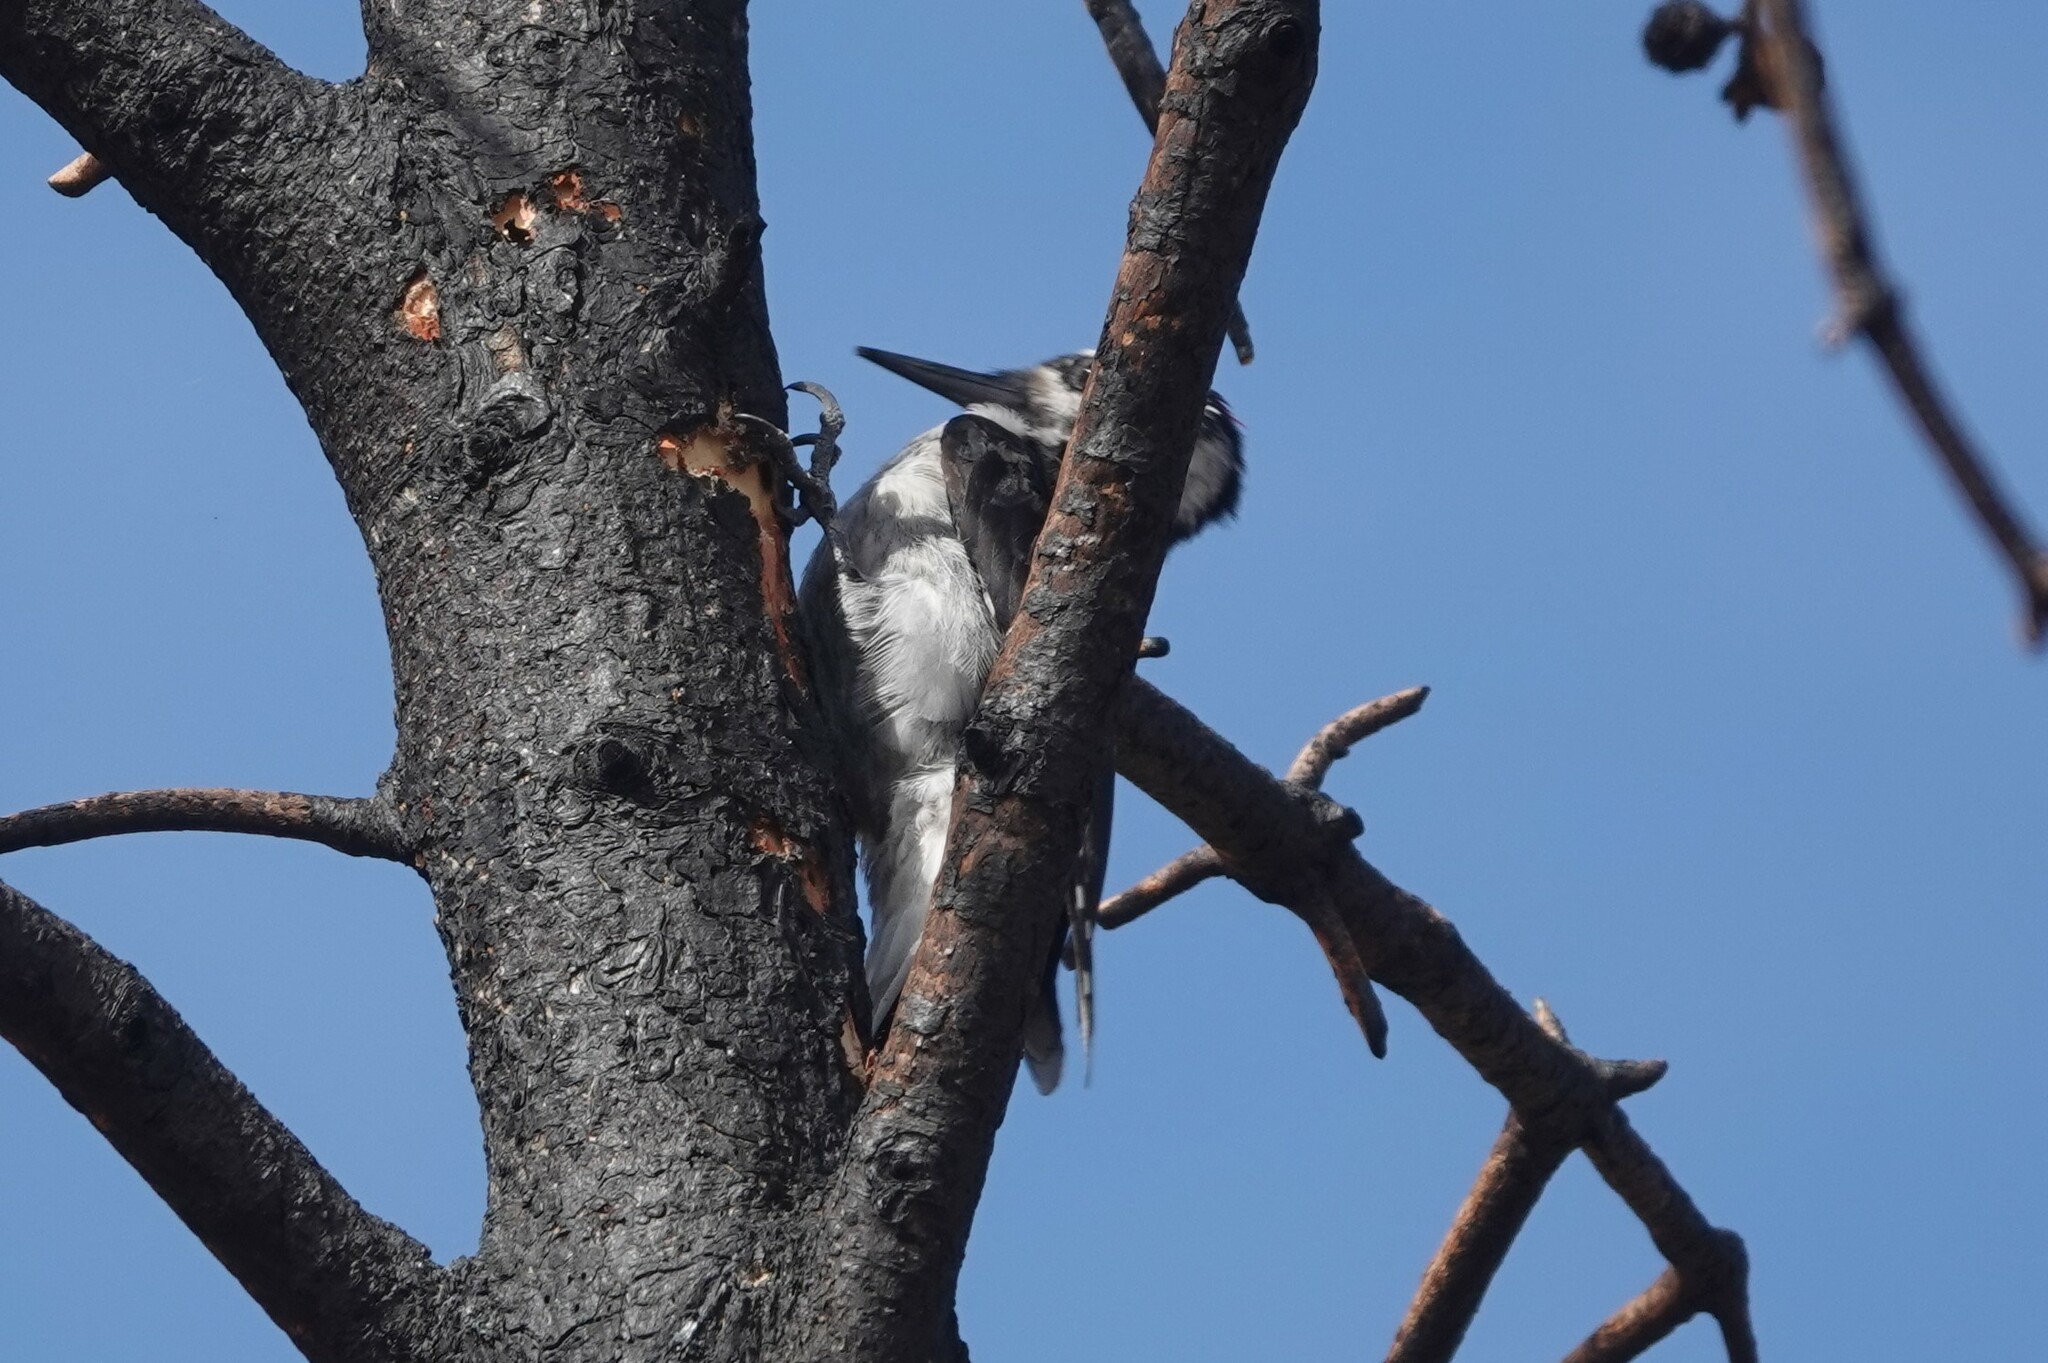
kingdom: Animalia
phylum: Chordata
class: Aves
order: Piciformes
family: Picidae
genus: Leuconotopicus
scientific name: Leuconotopicus villosus
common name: Hairy woodpecker
